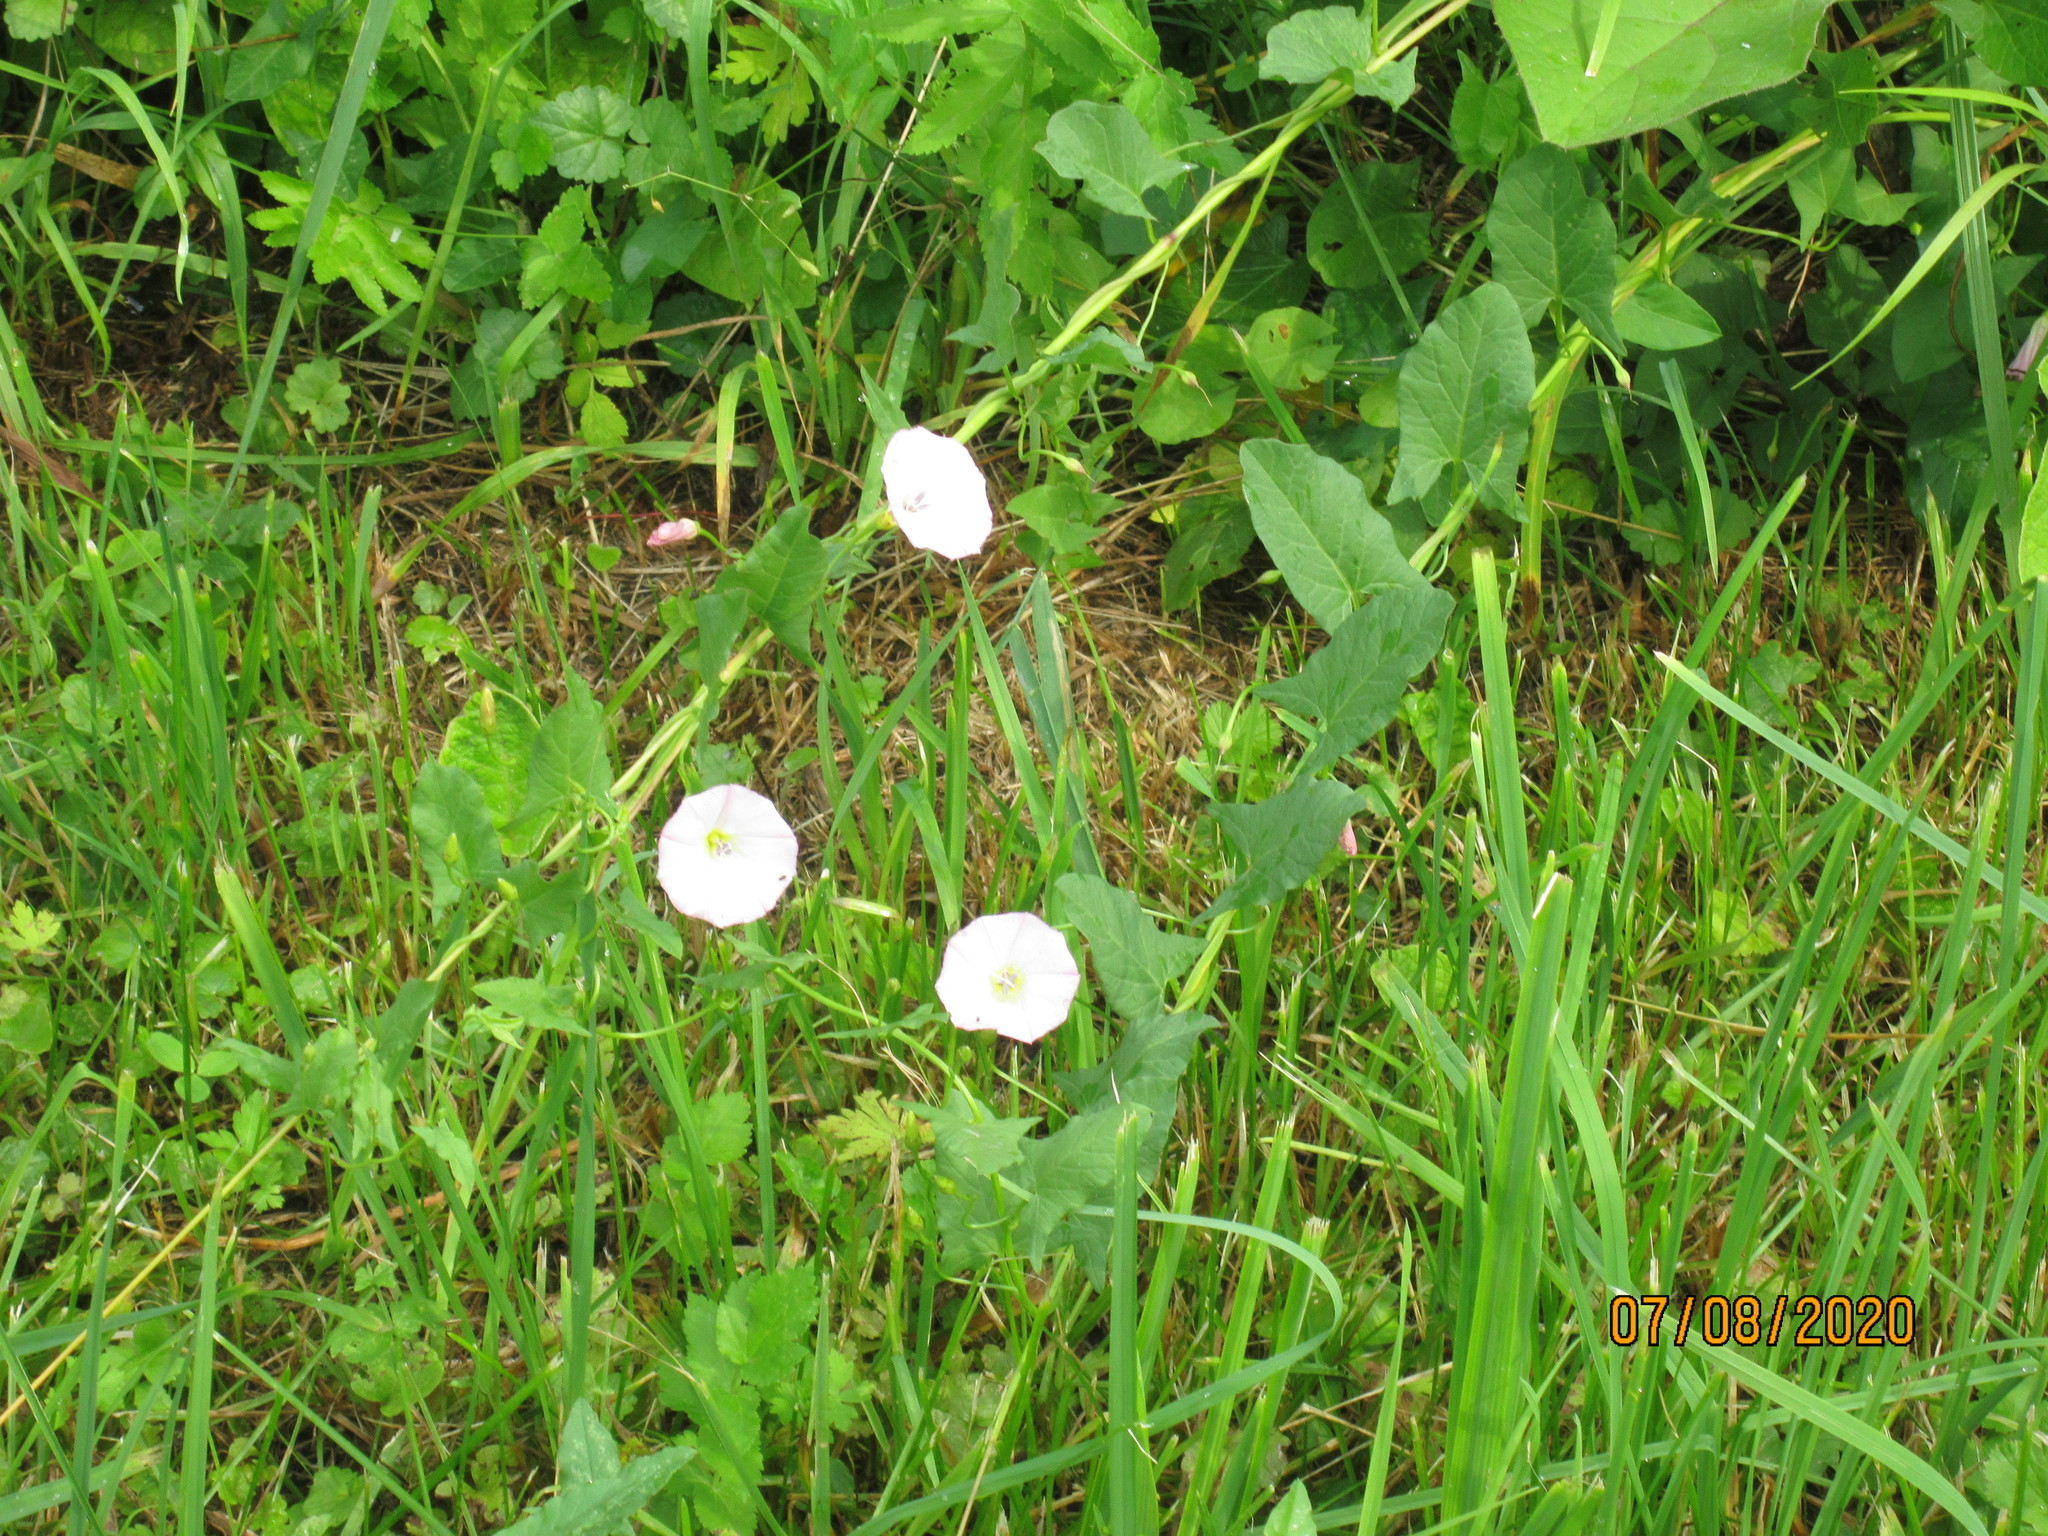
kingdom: Plantae
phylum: Tracheophyta
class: Magnoliopsida
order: Solanales
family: Convolvulaceae
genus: Convolvulus
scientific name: Convolvulus arvensis
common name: Field bindweed
